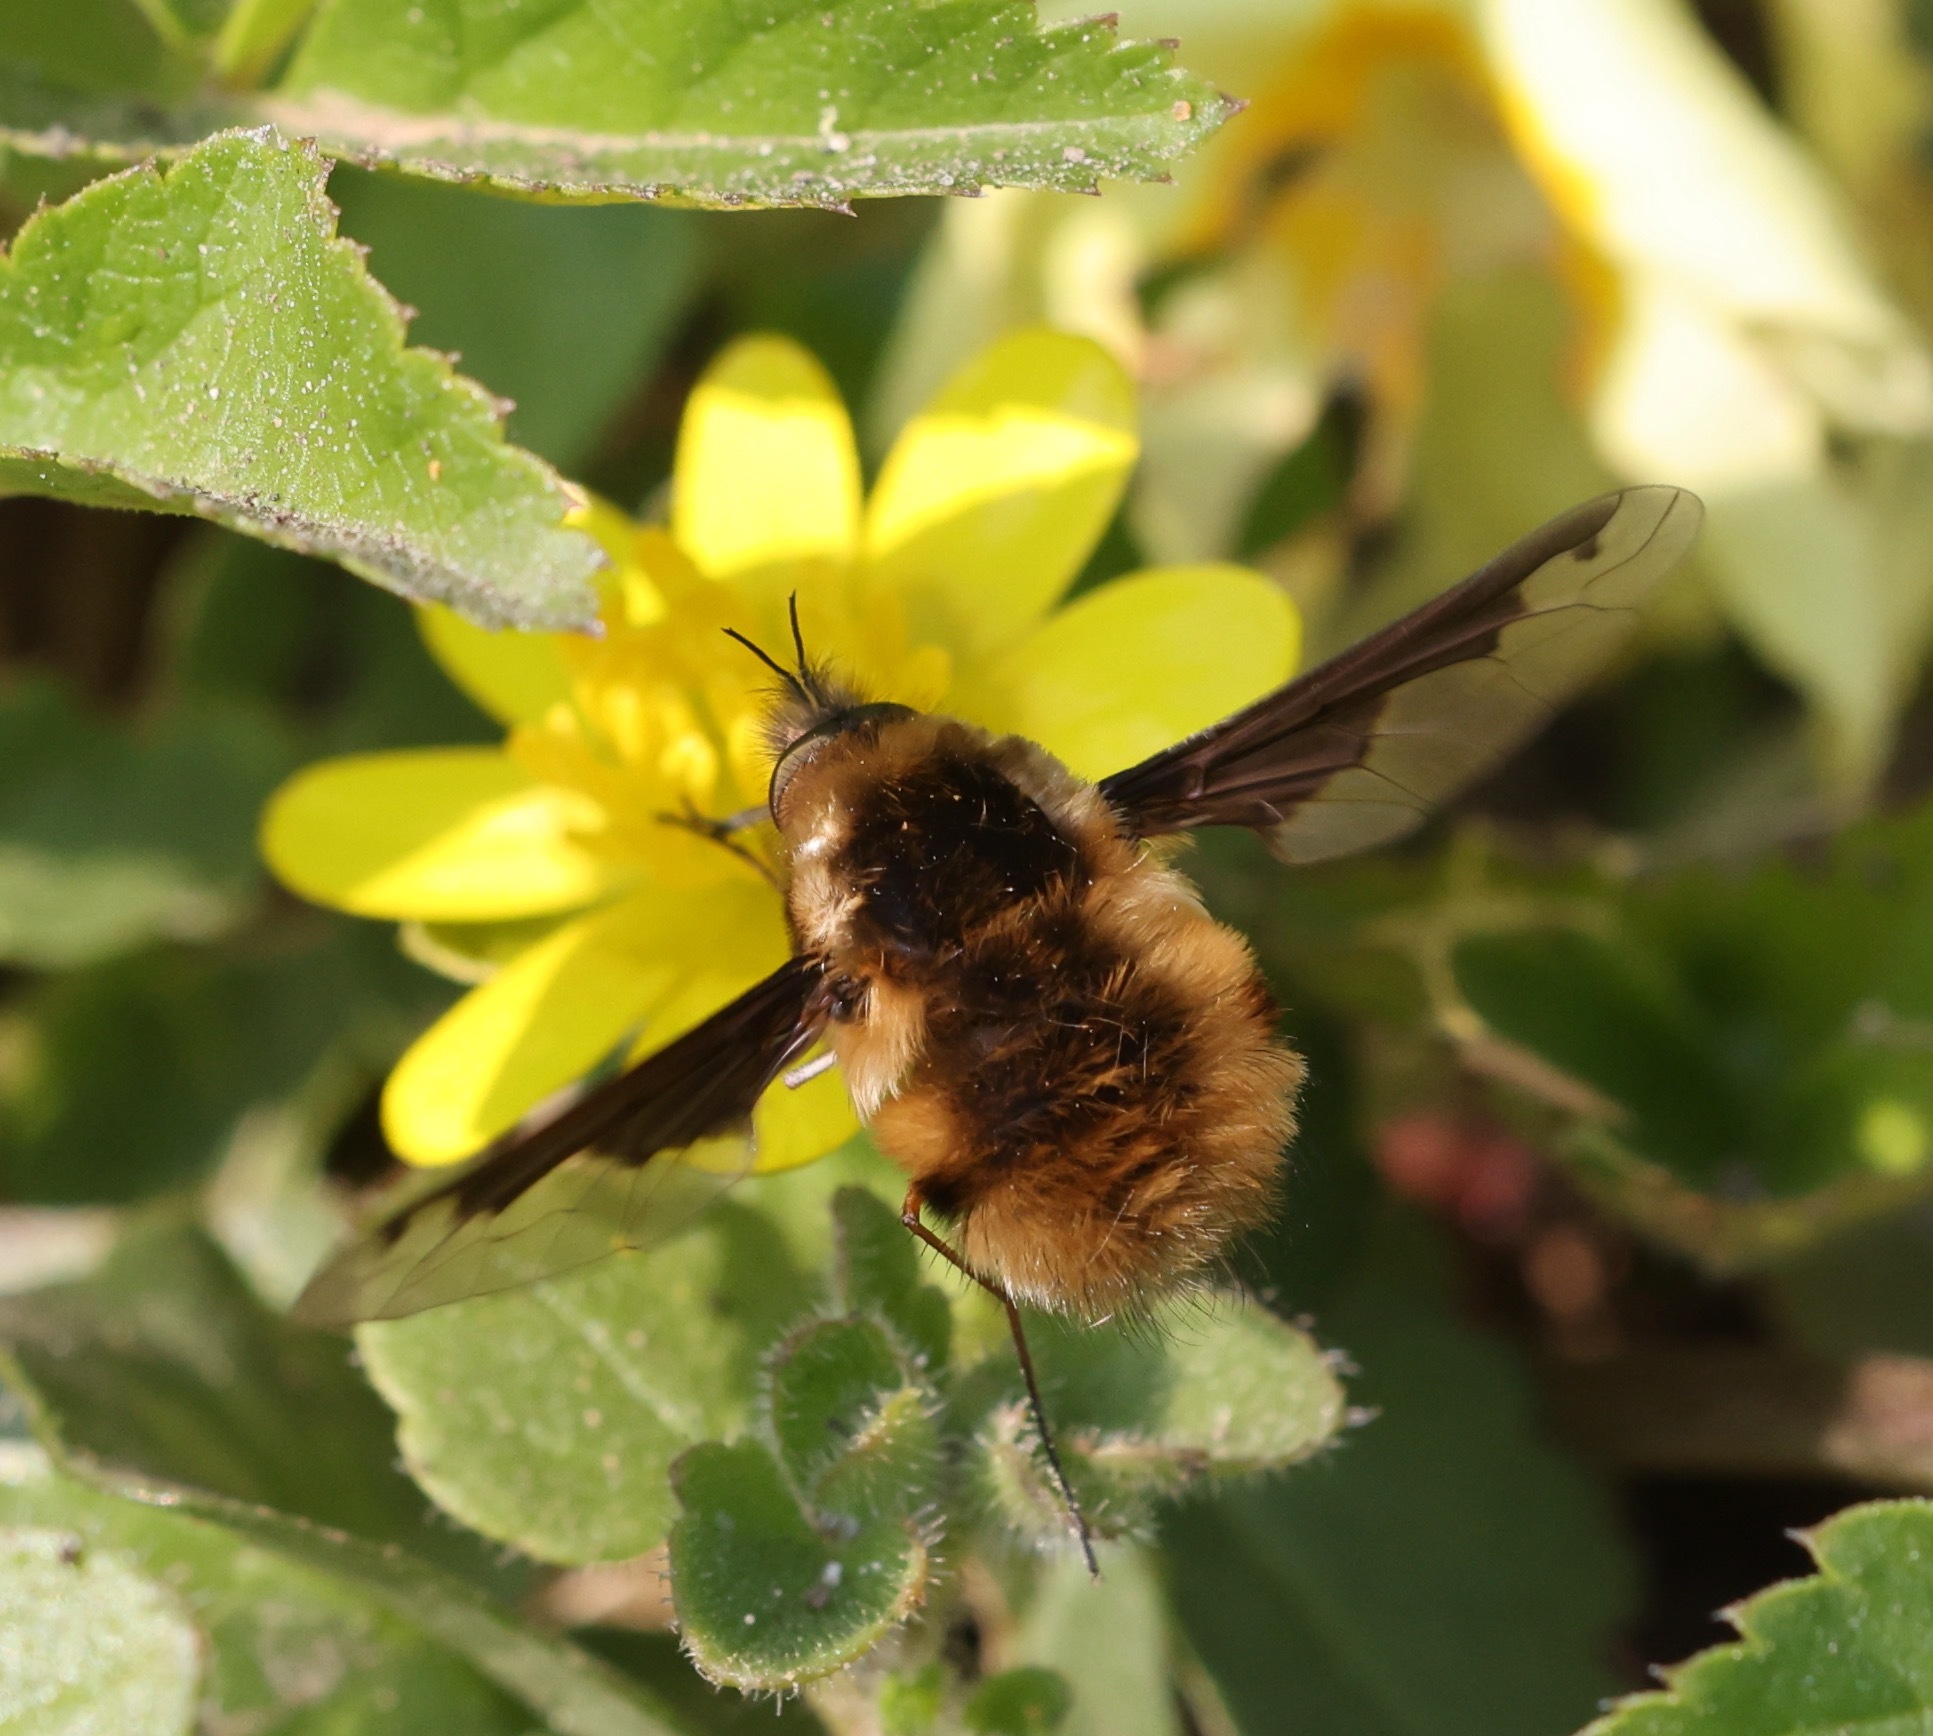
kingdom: Animalia
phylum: Arthropoda
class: Insecta
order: Diptera
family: Bombyliidae
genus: Bombylius
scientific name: Bombylius major
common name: Bee fly
